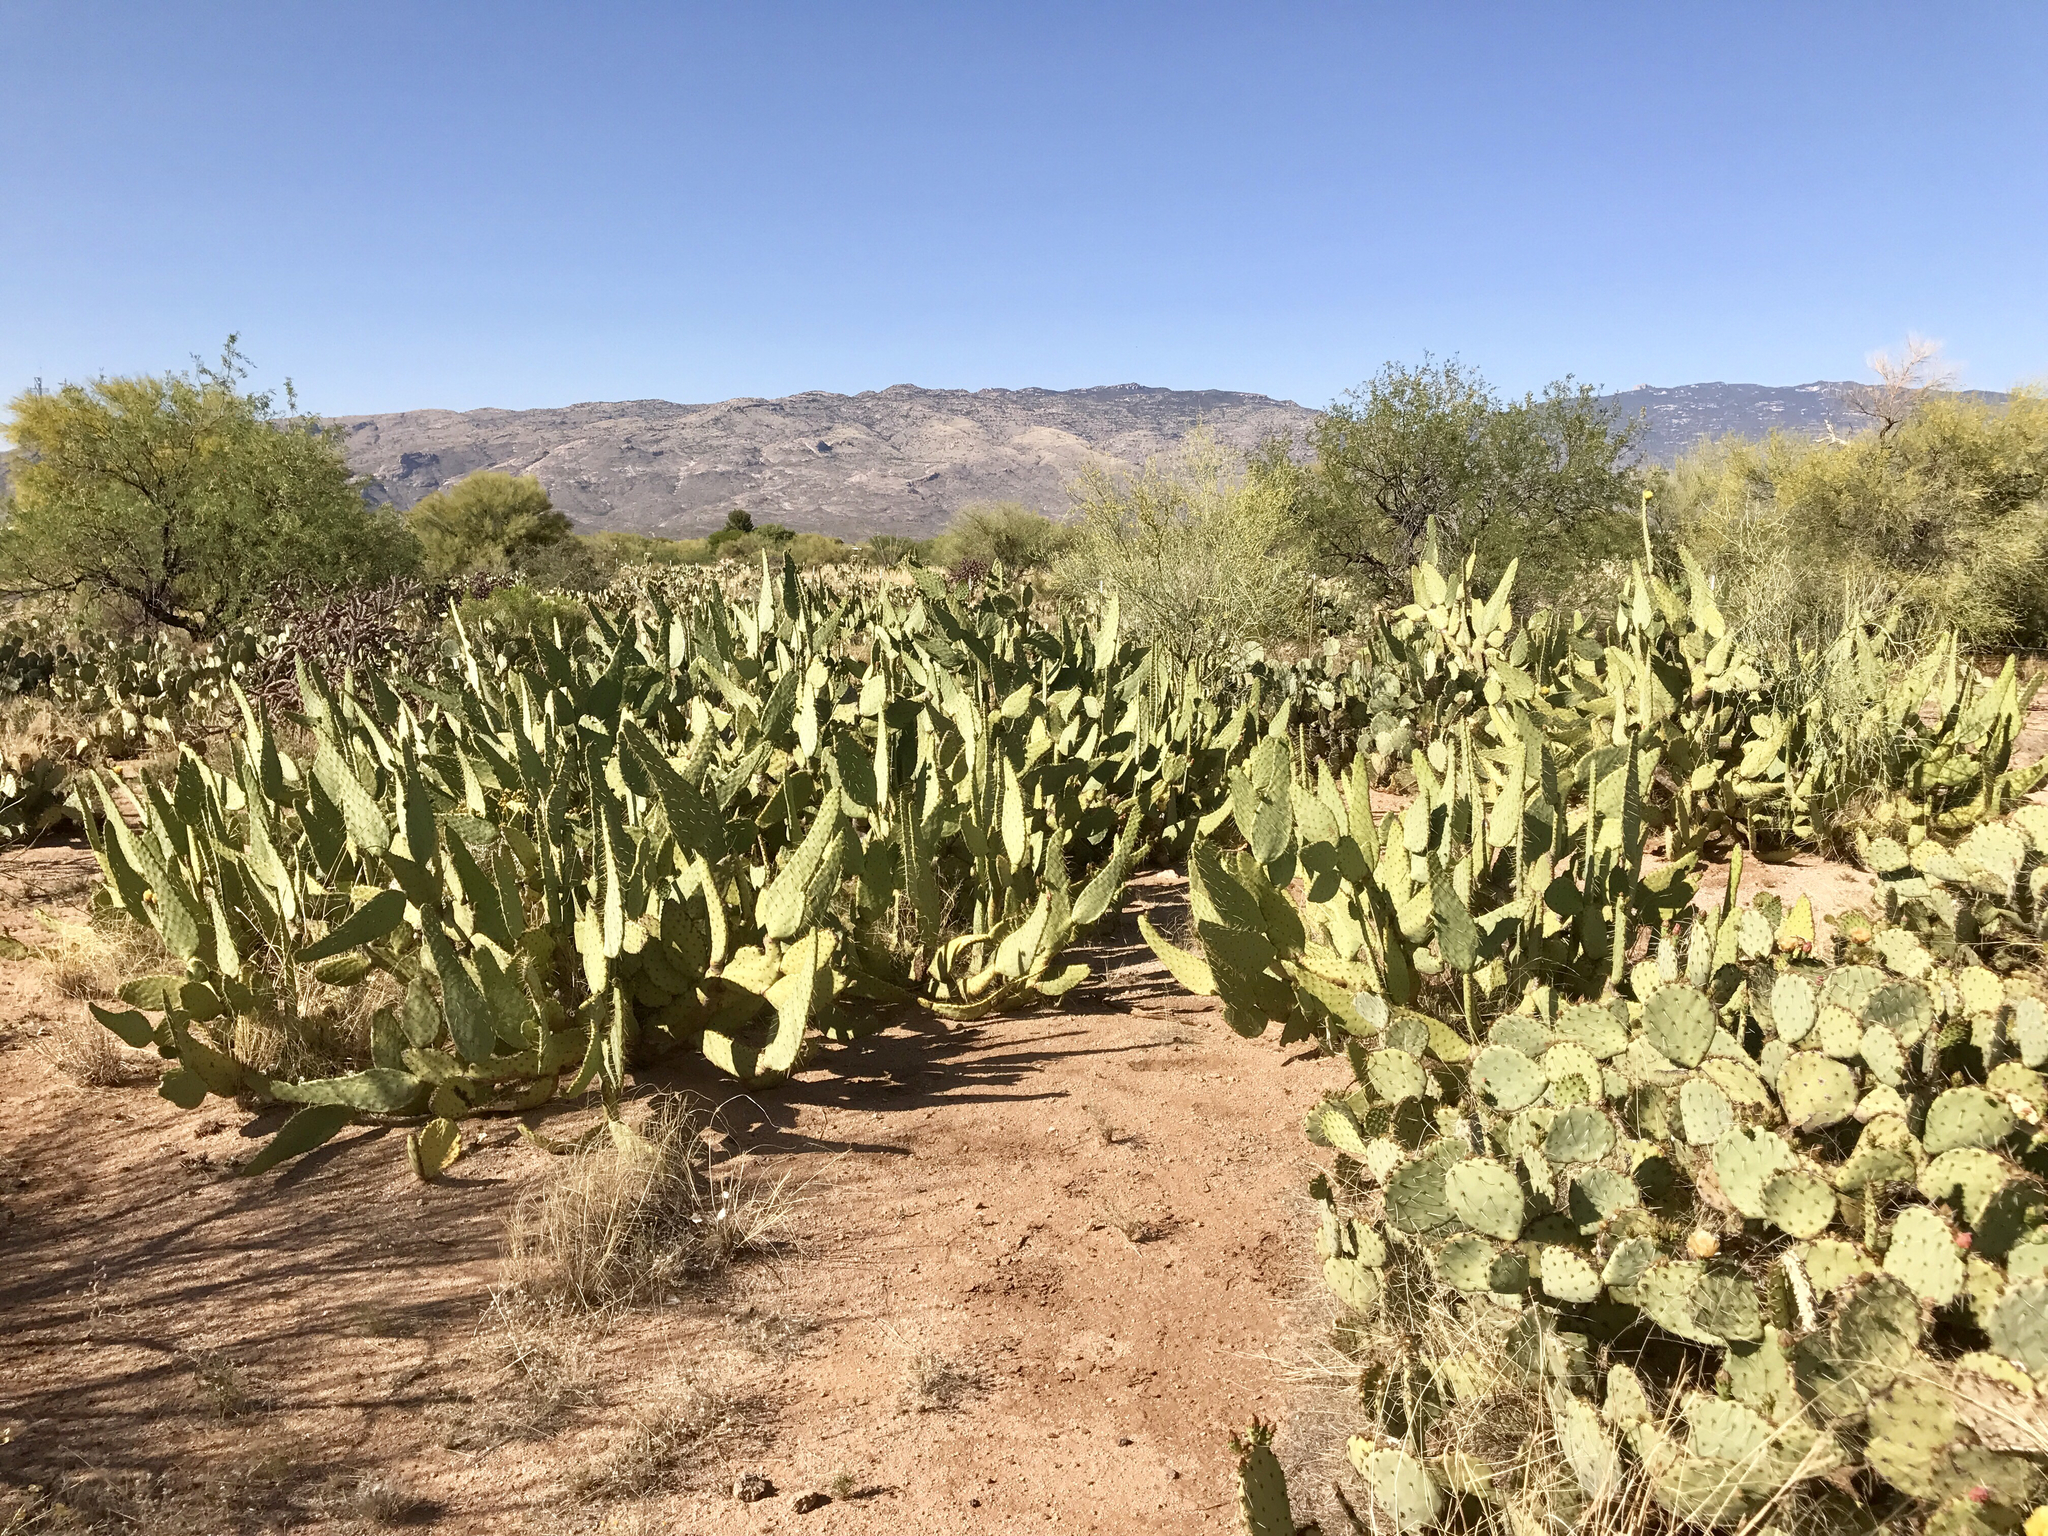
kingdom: Plantae
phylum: Tracheophyta
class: Magnoliopsida
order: Caryophyllales
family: Cactaceae
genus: Opuntia
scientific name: Opuntia engelmannii
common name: Cactus-apple
